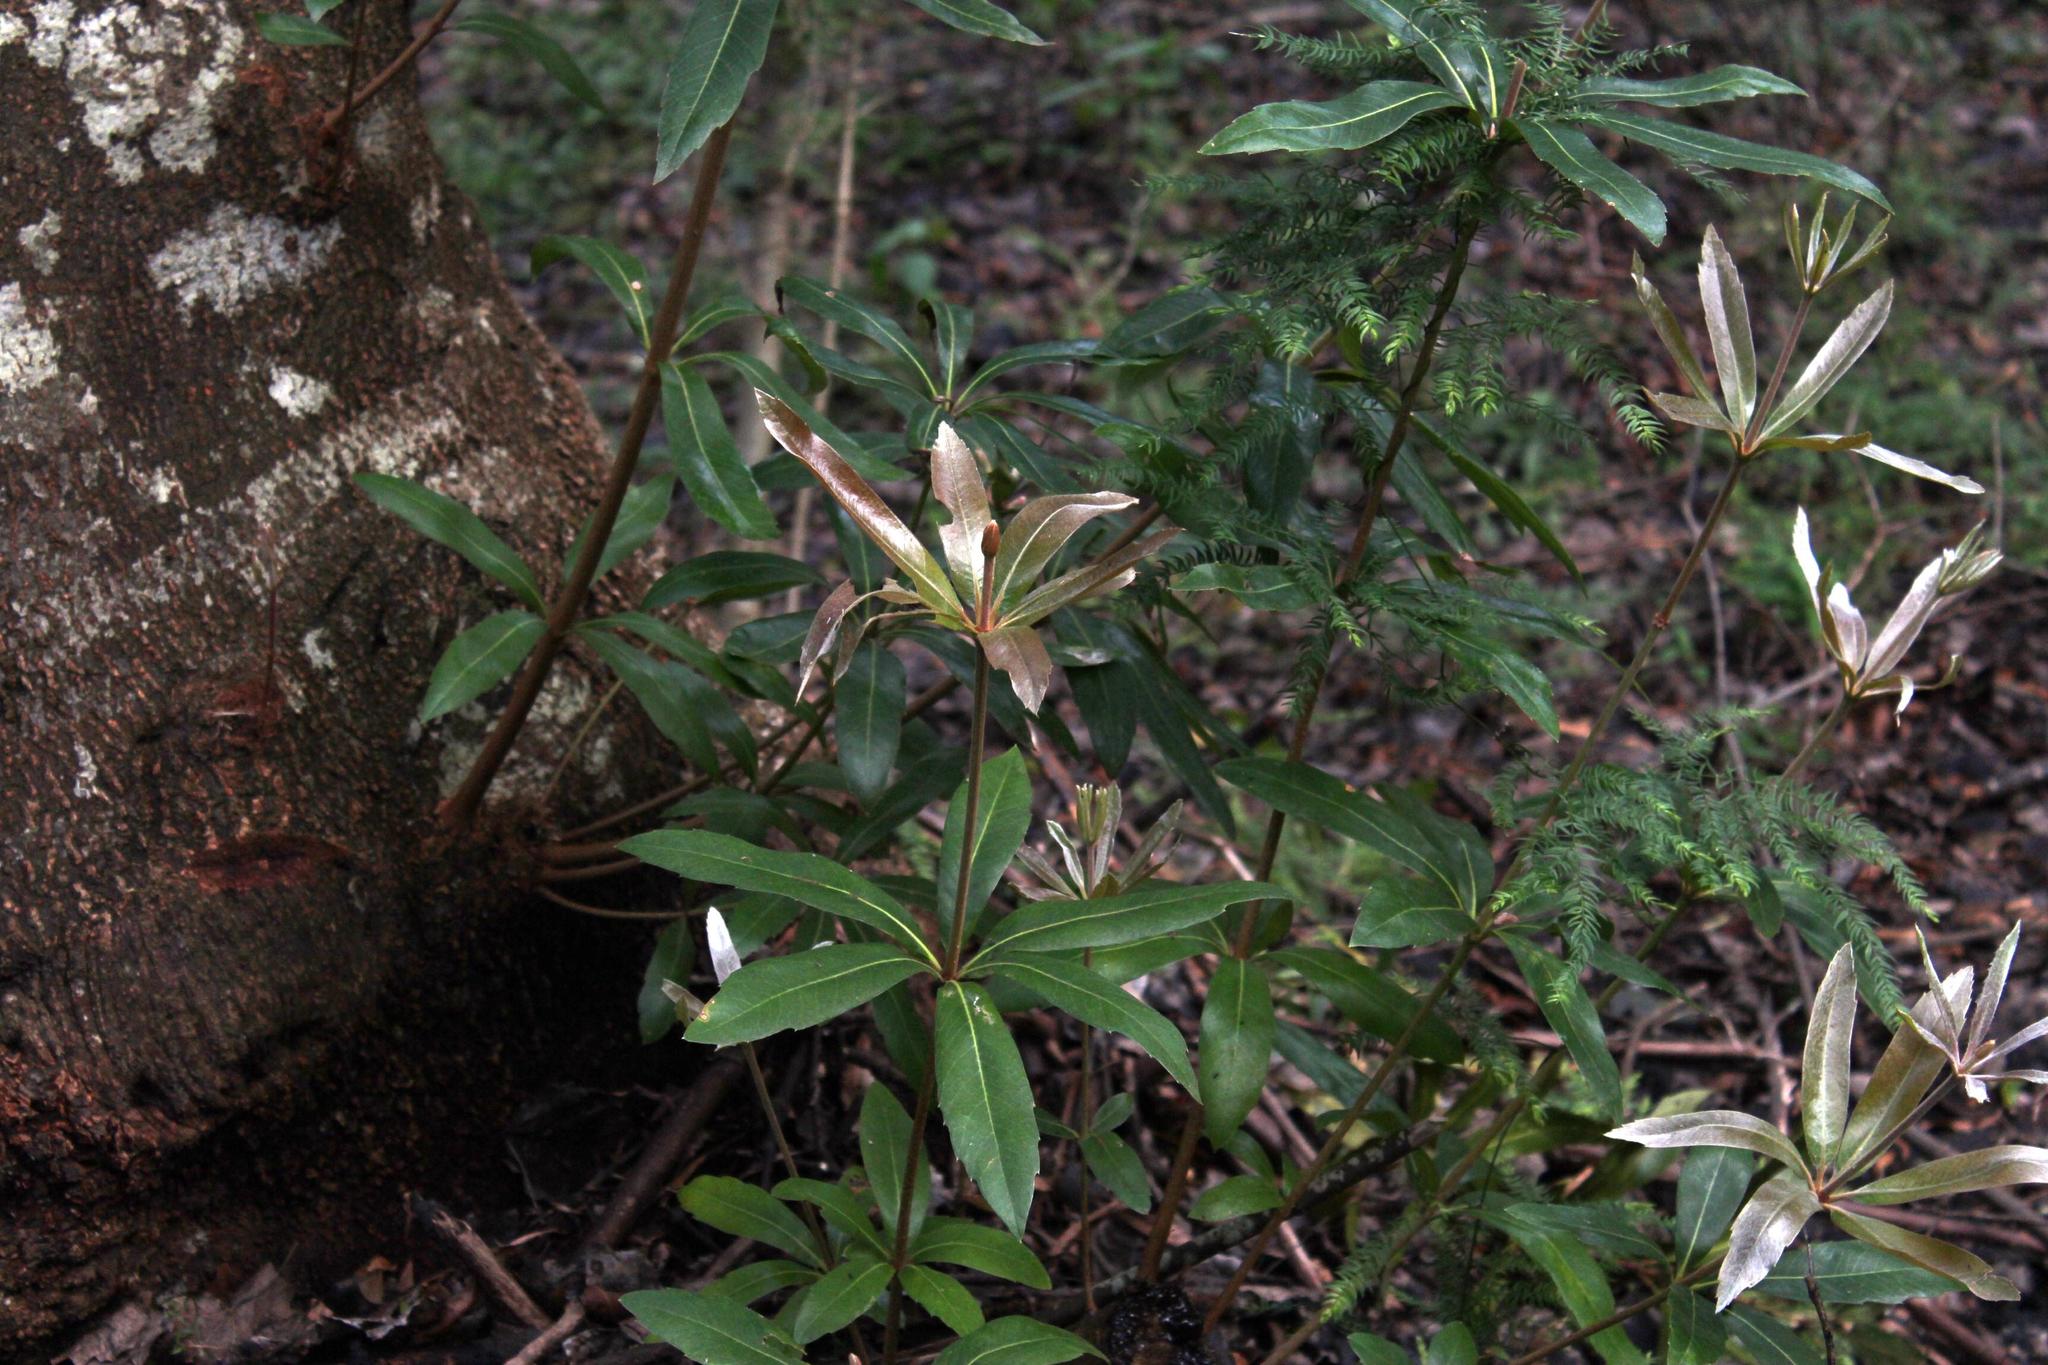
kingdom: Plantae
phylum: Tracheophyta
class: Magnoliopsida
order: Proteales
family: Proteaceae
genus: Brabejum
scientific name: Brabejum stellatifolium
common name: Wild almond
